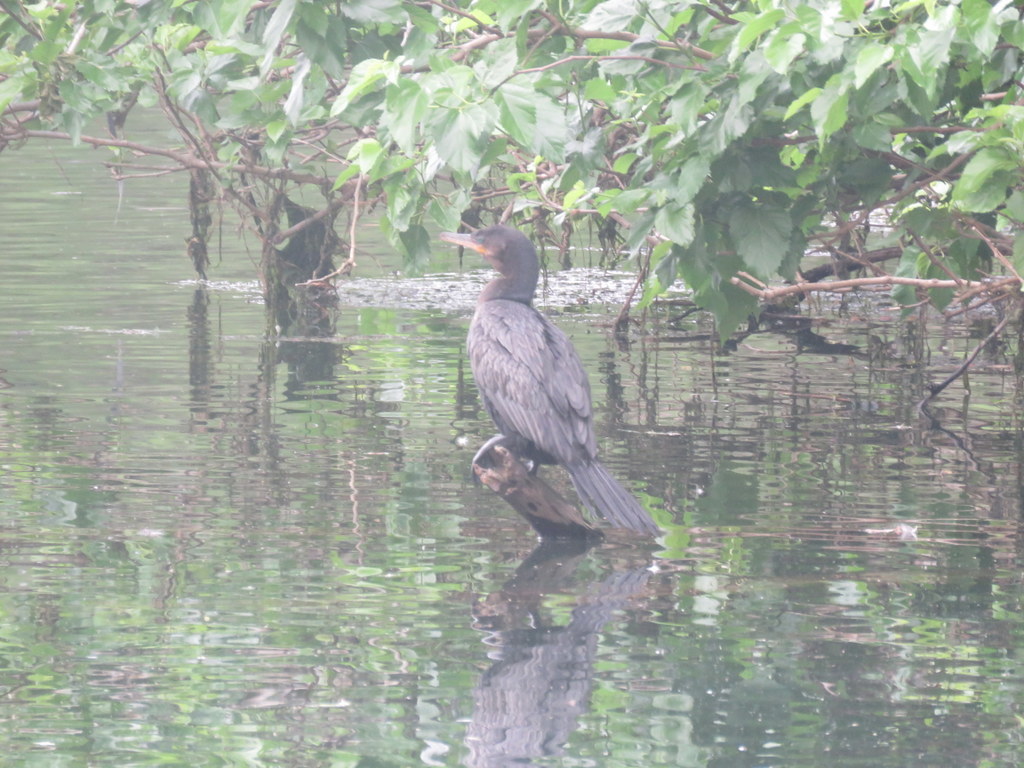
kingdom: Animalia
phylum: Chordata
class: Aves
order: Suliformes
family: Phalacrocoracidae
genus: Phalacrocorax
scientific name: Phalacrocorax brasilianus
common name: Neotropic cormorant
